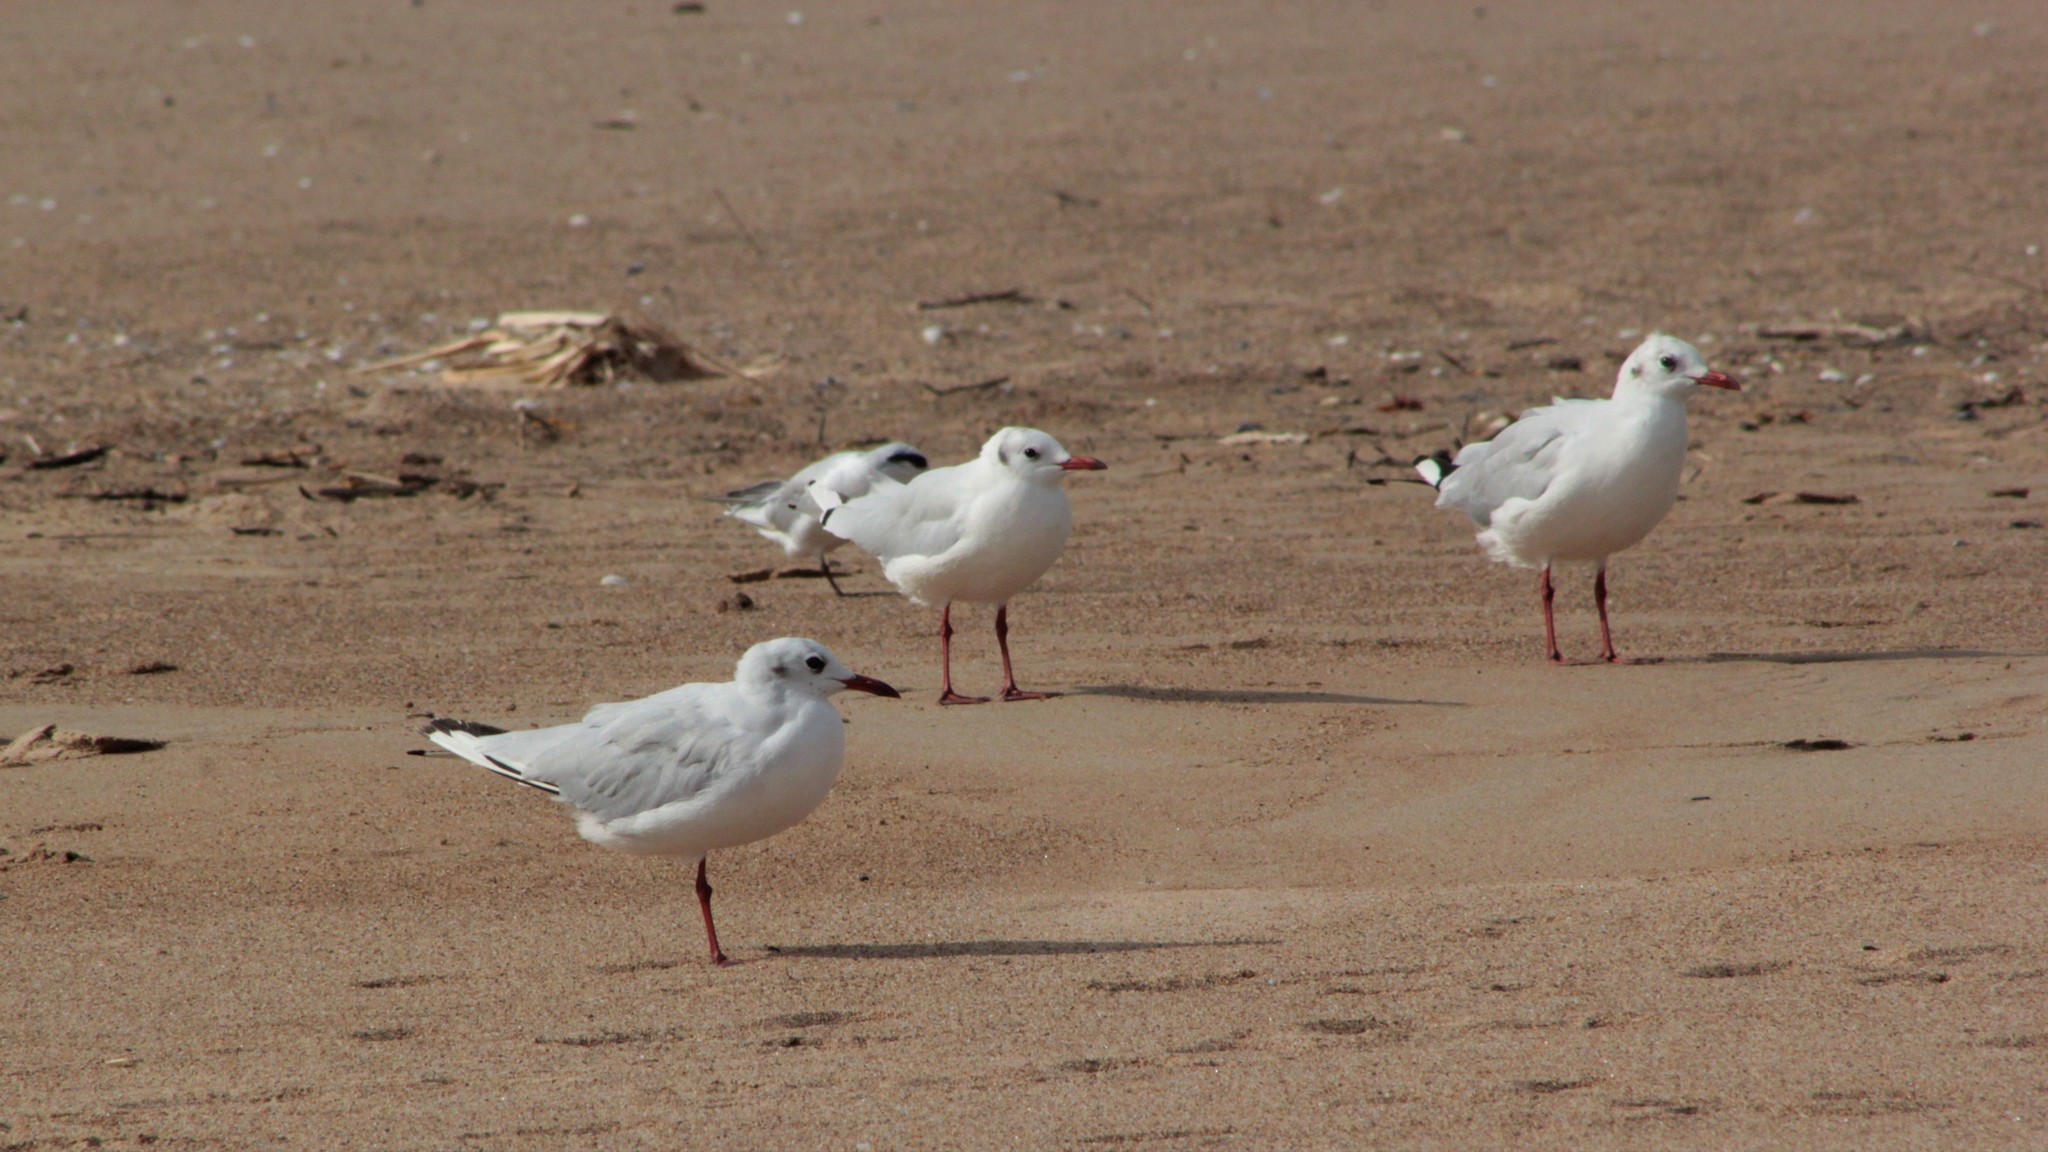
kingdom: Animalia
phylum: Chordata
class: Aves
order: Charadriiformes
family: Laridae
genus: Chroicocephalus
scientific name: Chroicocephalus maculipennis
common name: Brown-hooded gull
